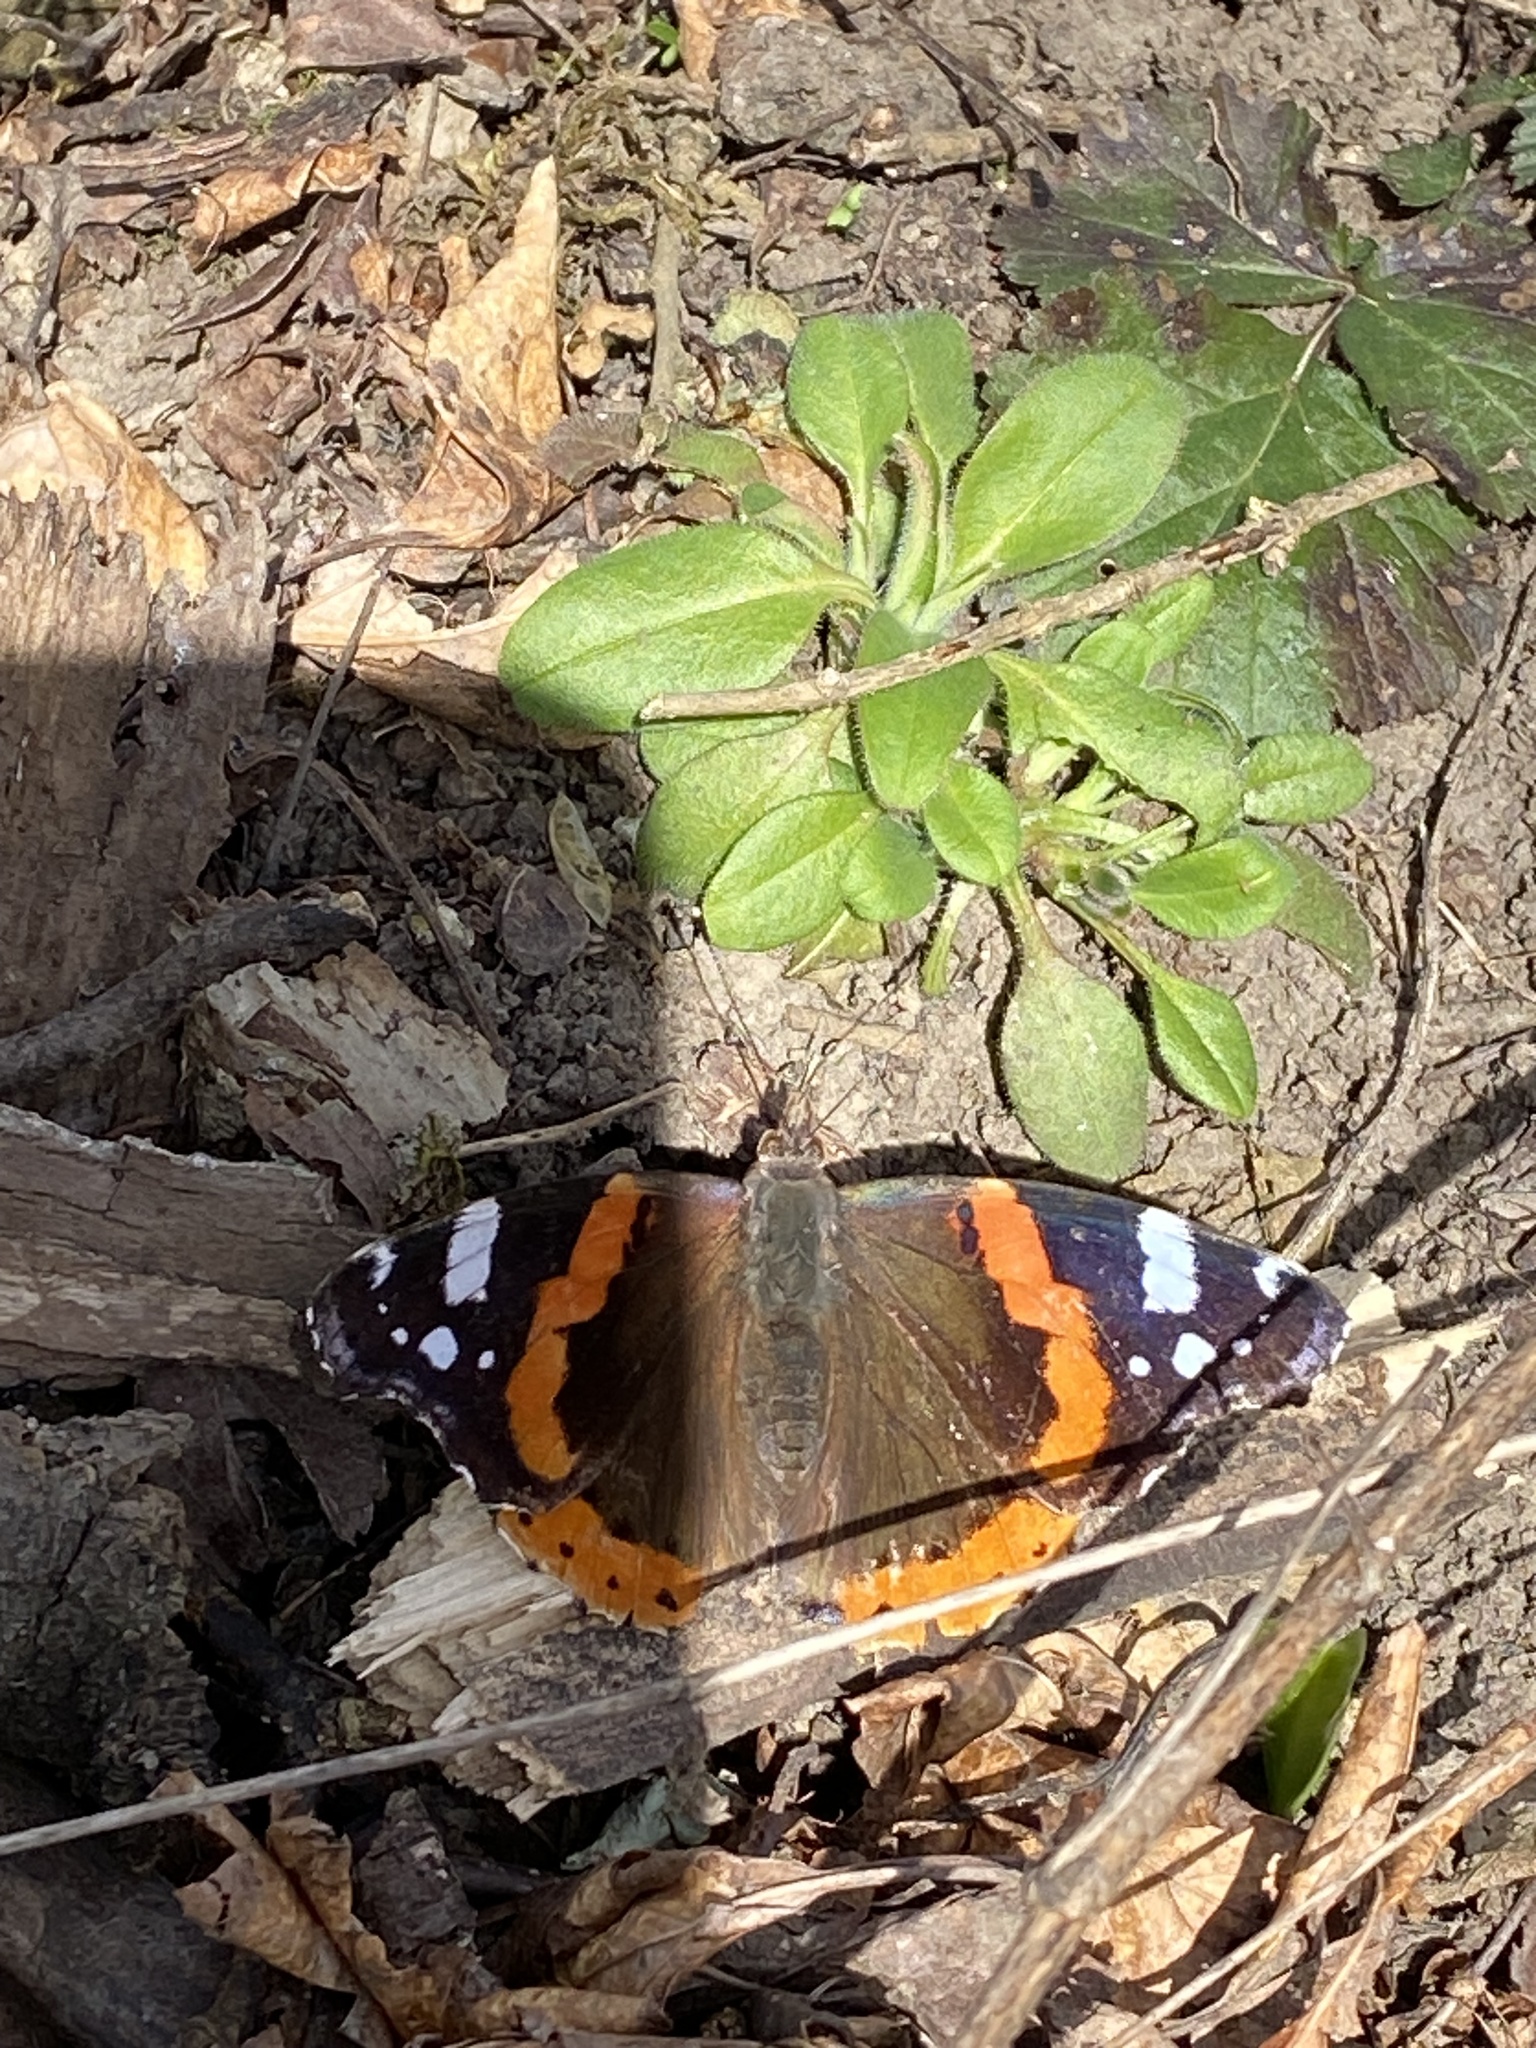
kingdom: Animalia
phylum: Arthropoda
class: Insecta
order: Lepidoptera
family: Nymphalidae
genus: Vanessa
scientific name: Vanessa atalanta
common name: Red admiral
